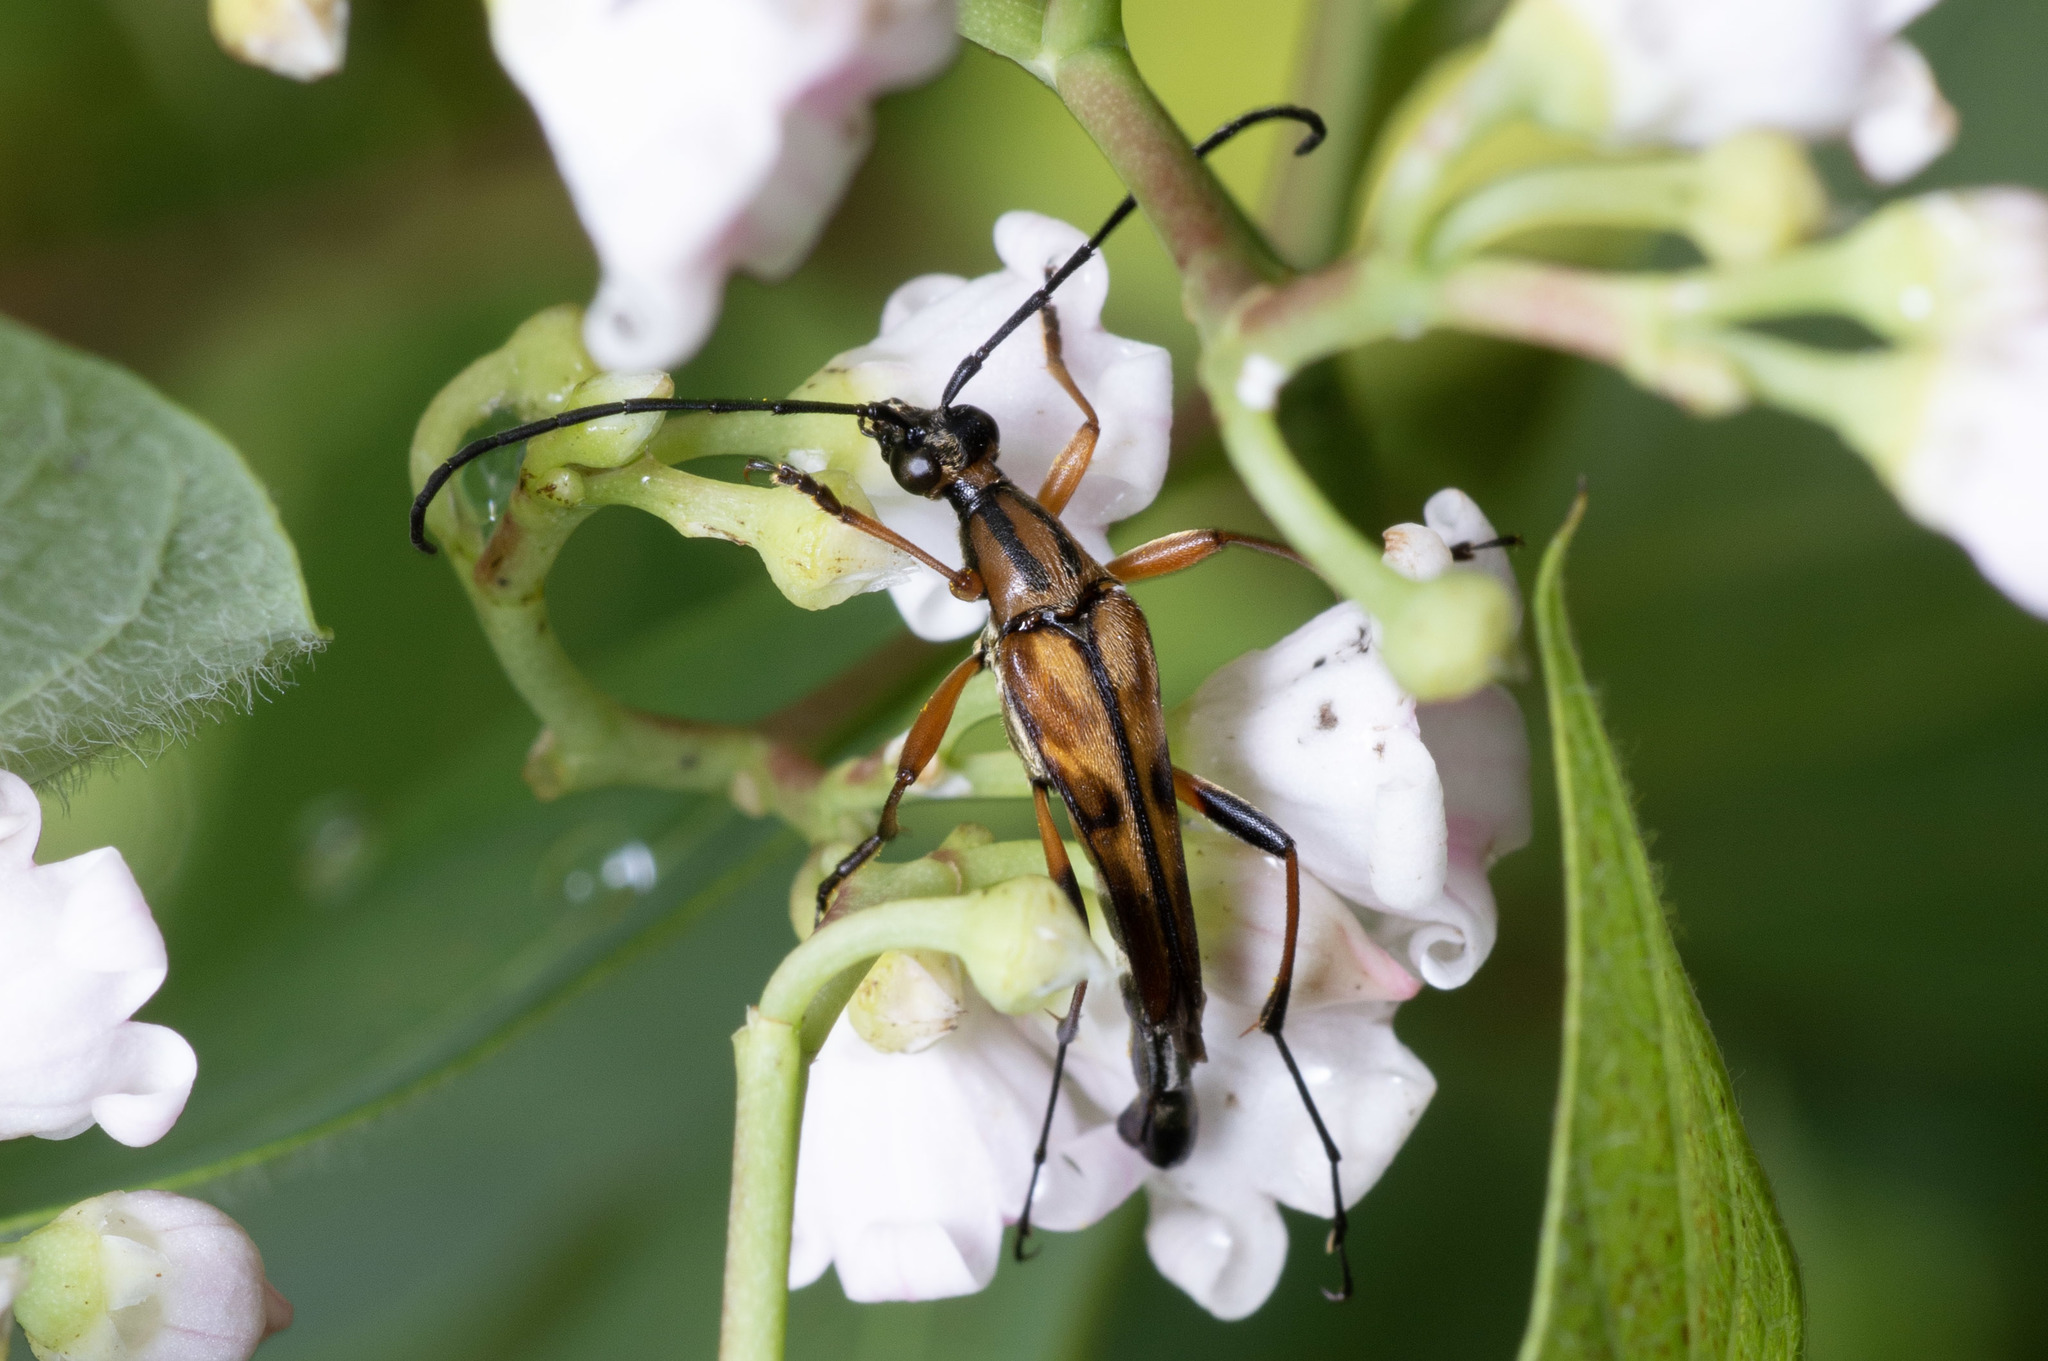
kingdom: Animalia
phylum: Arthropoda
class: Insecta
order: Coleoptera
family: Cerambycidae
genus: Strangalia
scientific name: Strangalia famelica
